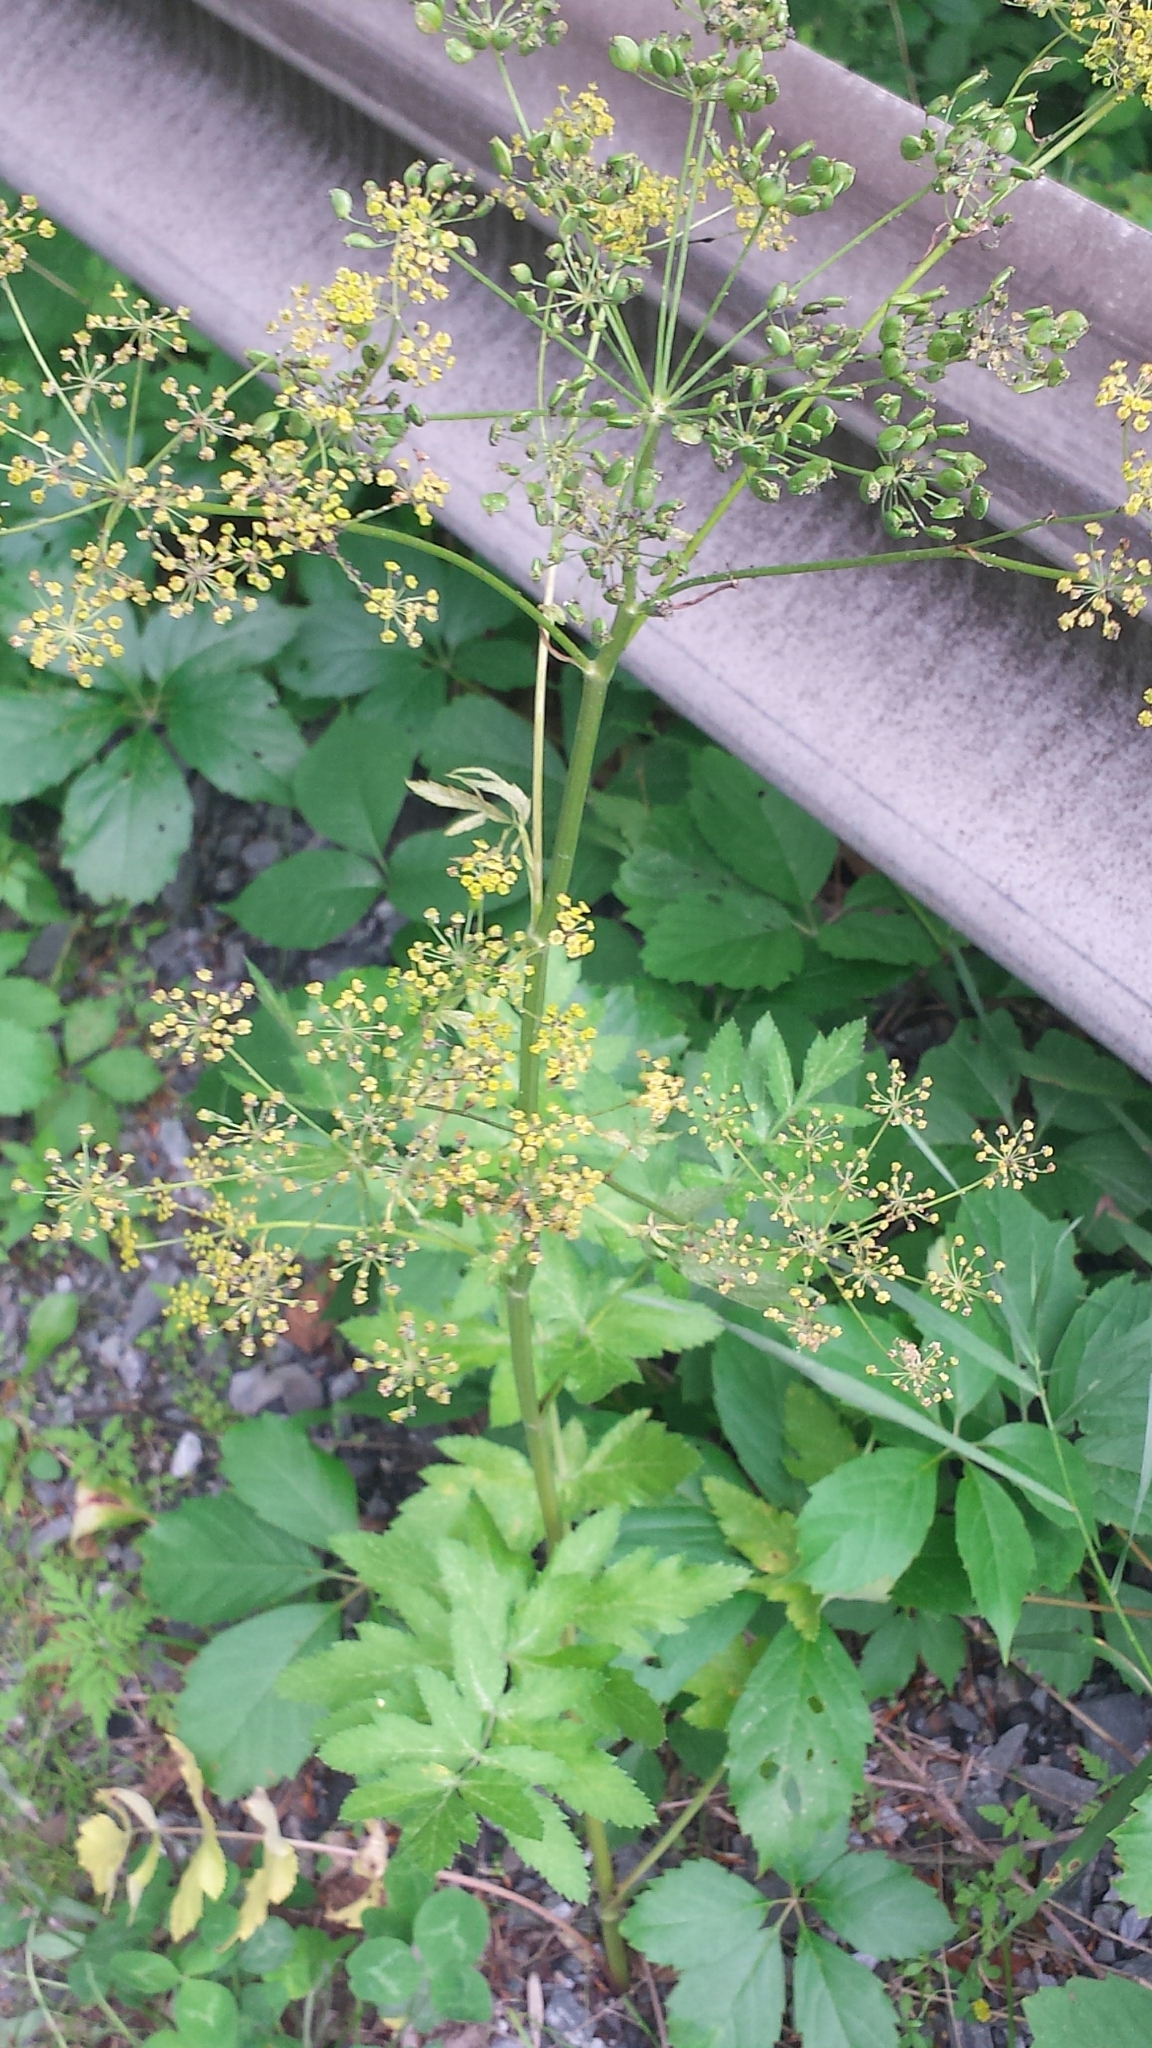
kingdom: Plantae
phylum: Tracheophyta
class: Magnoliopsida
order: Apiales
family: Apiaceae
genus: Pastinaca
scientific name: Pastinaca sativa
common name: Wild parsnip
